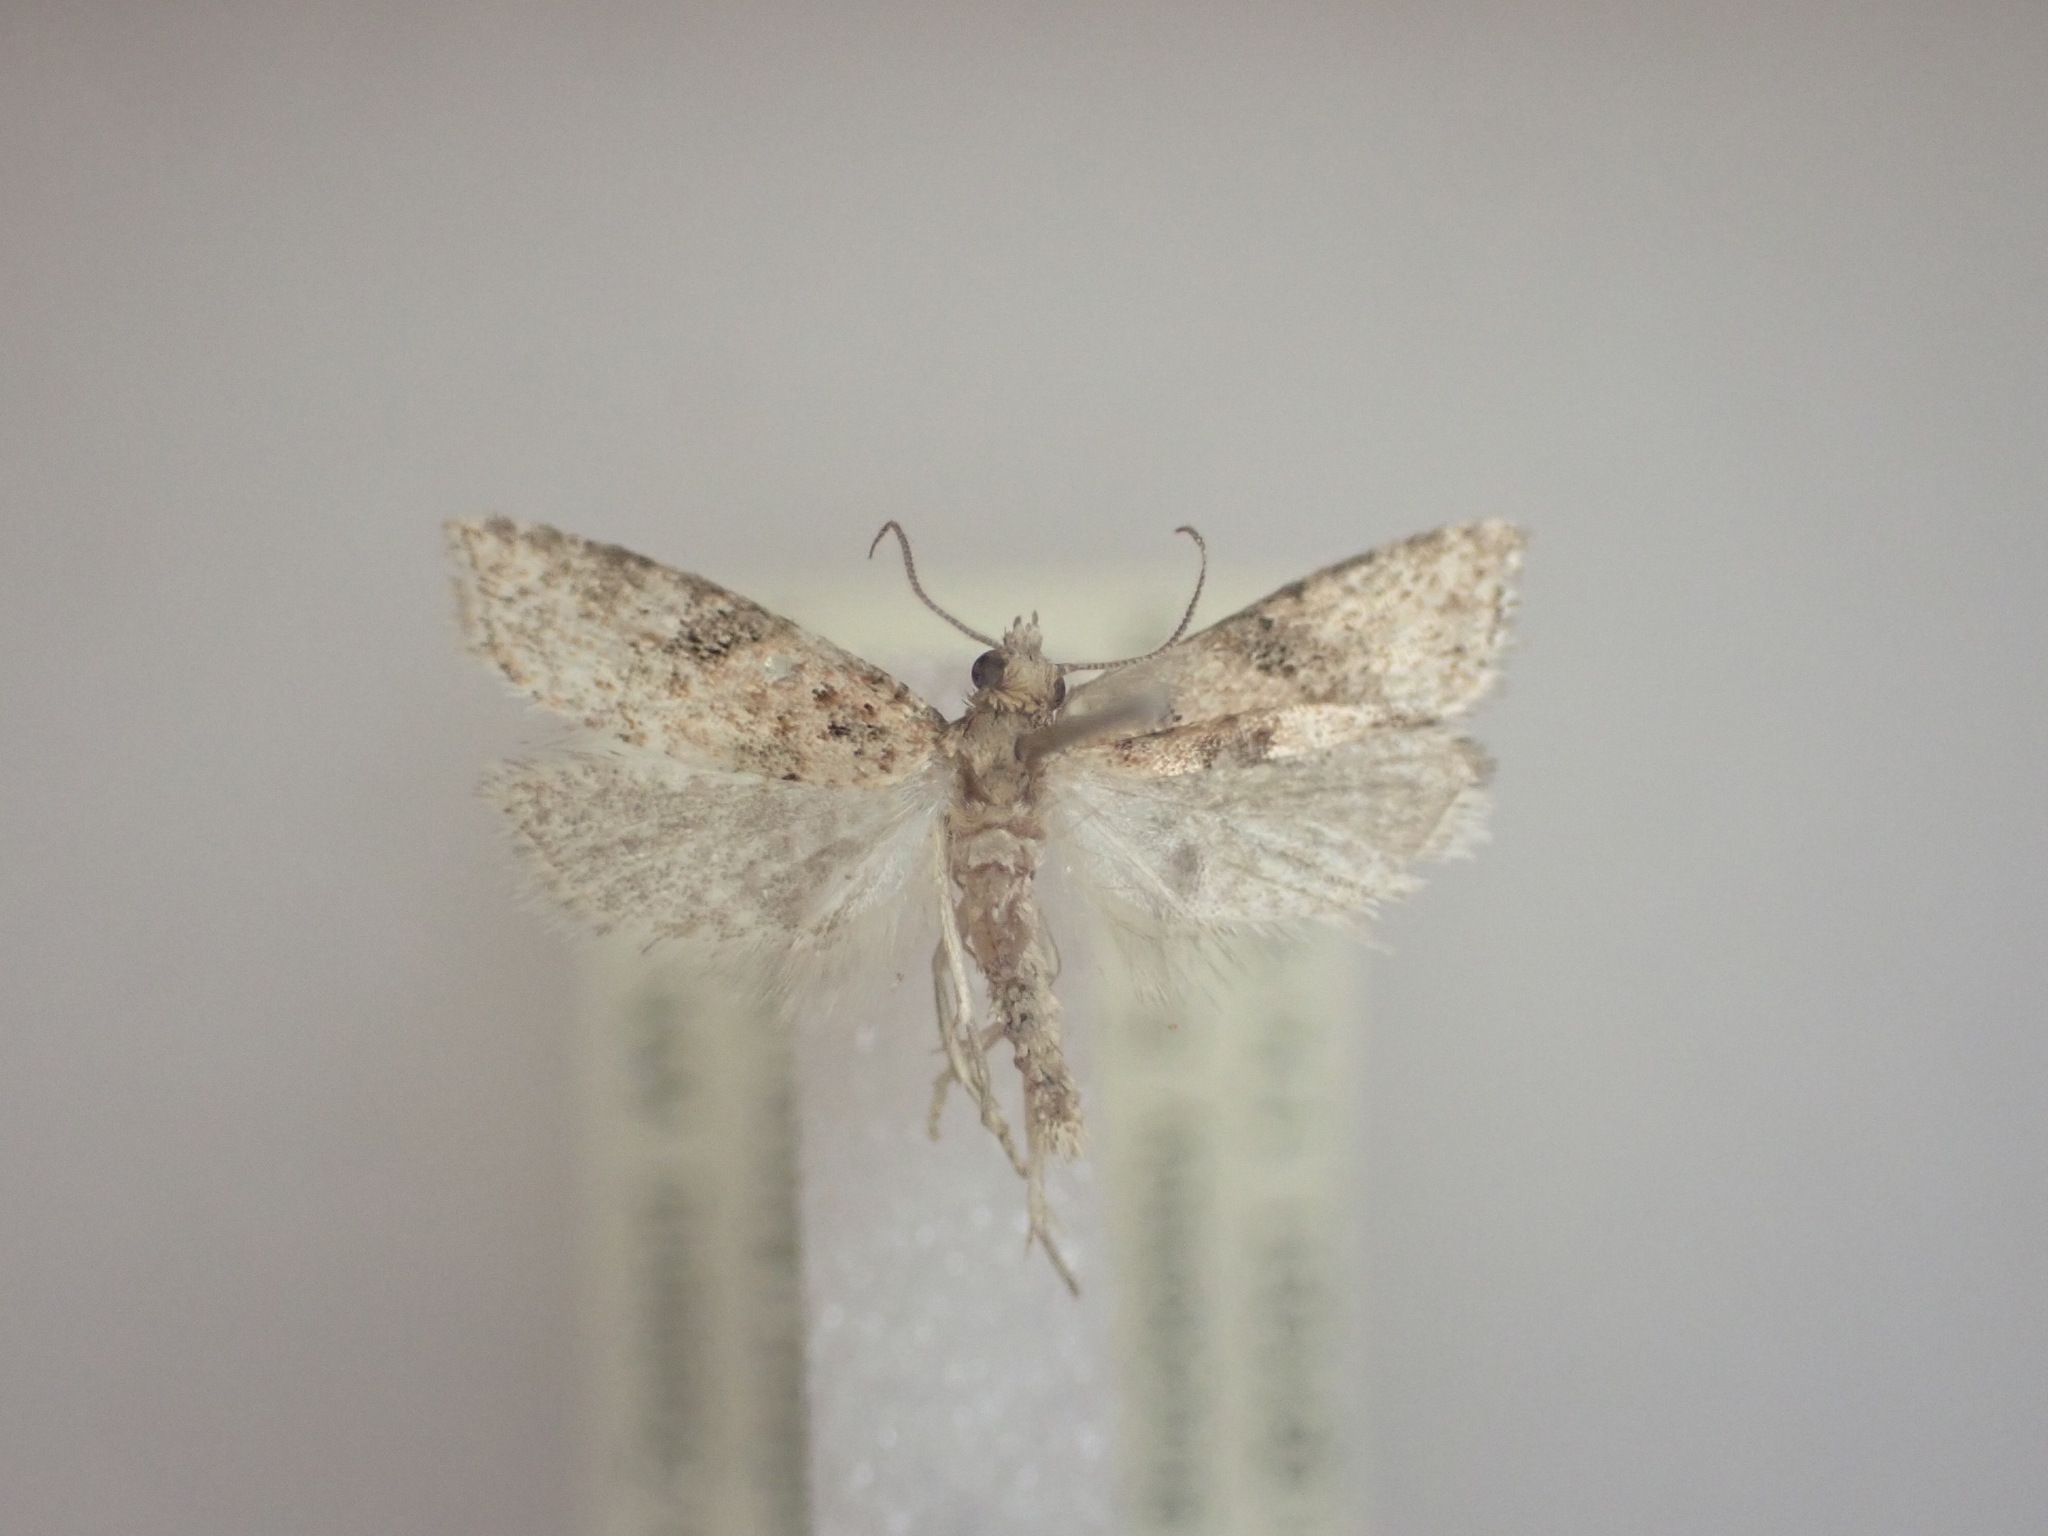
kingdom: Animalia
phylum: Arthropoda
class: Insecta
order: Lepidoptera
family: Tortricidae
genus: Capua
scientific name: Capua semiferana
